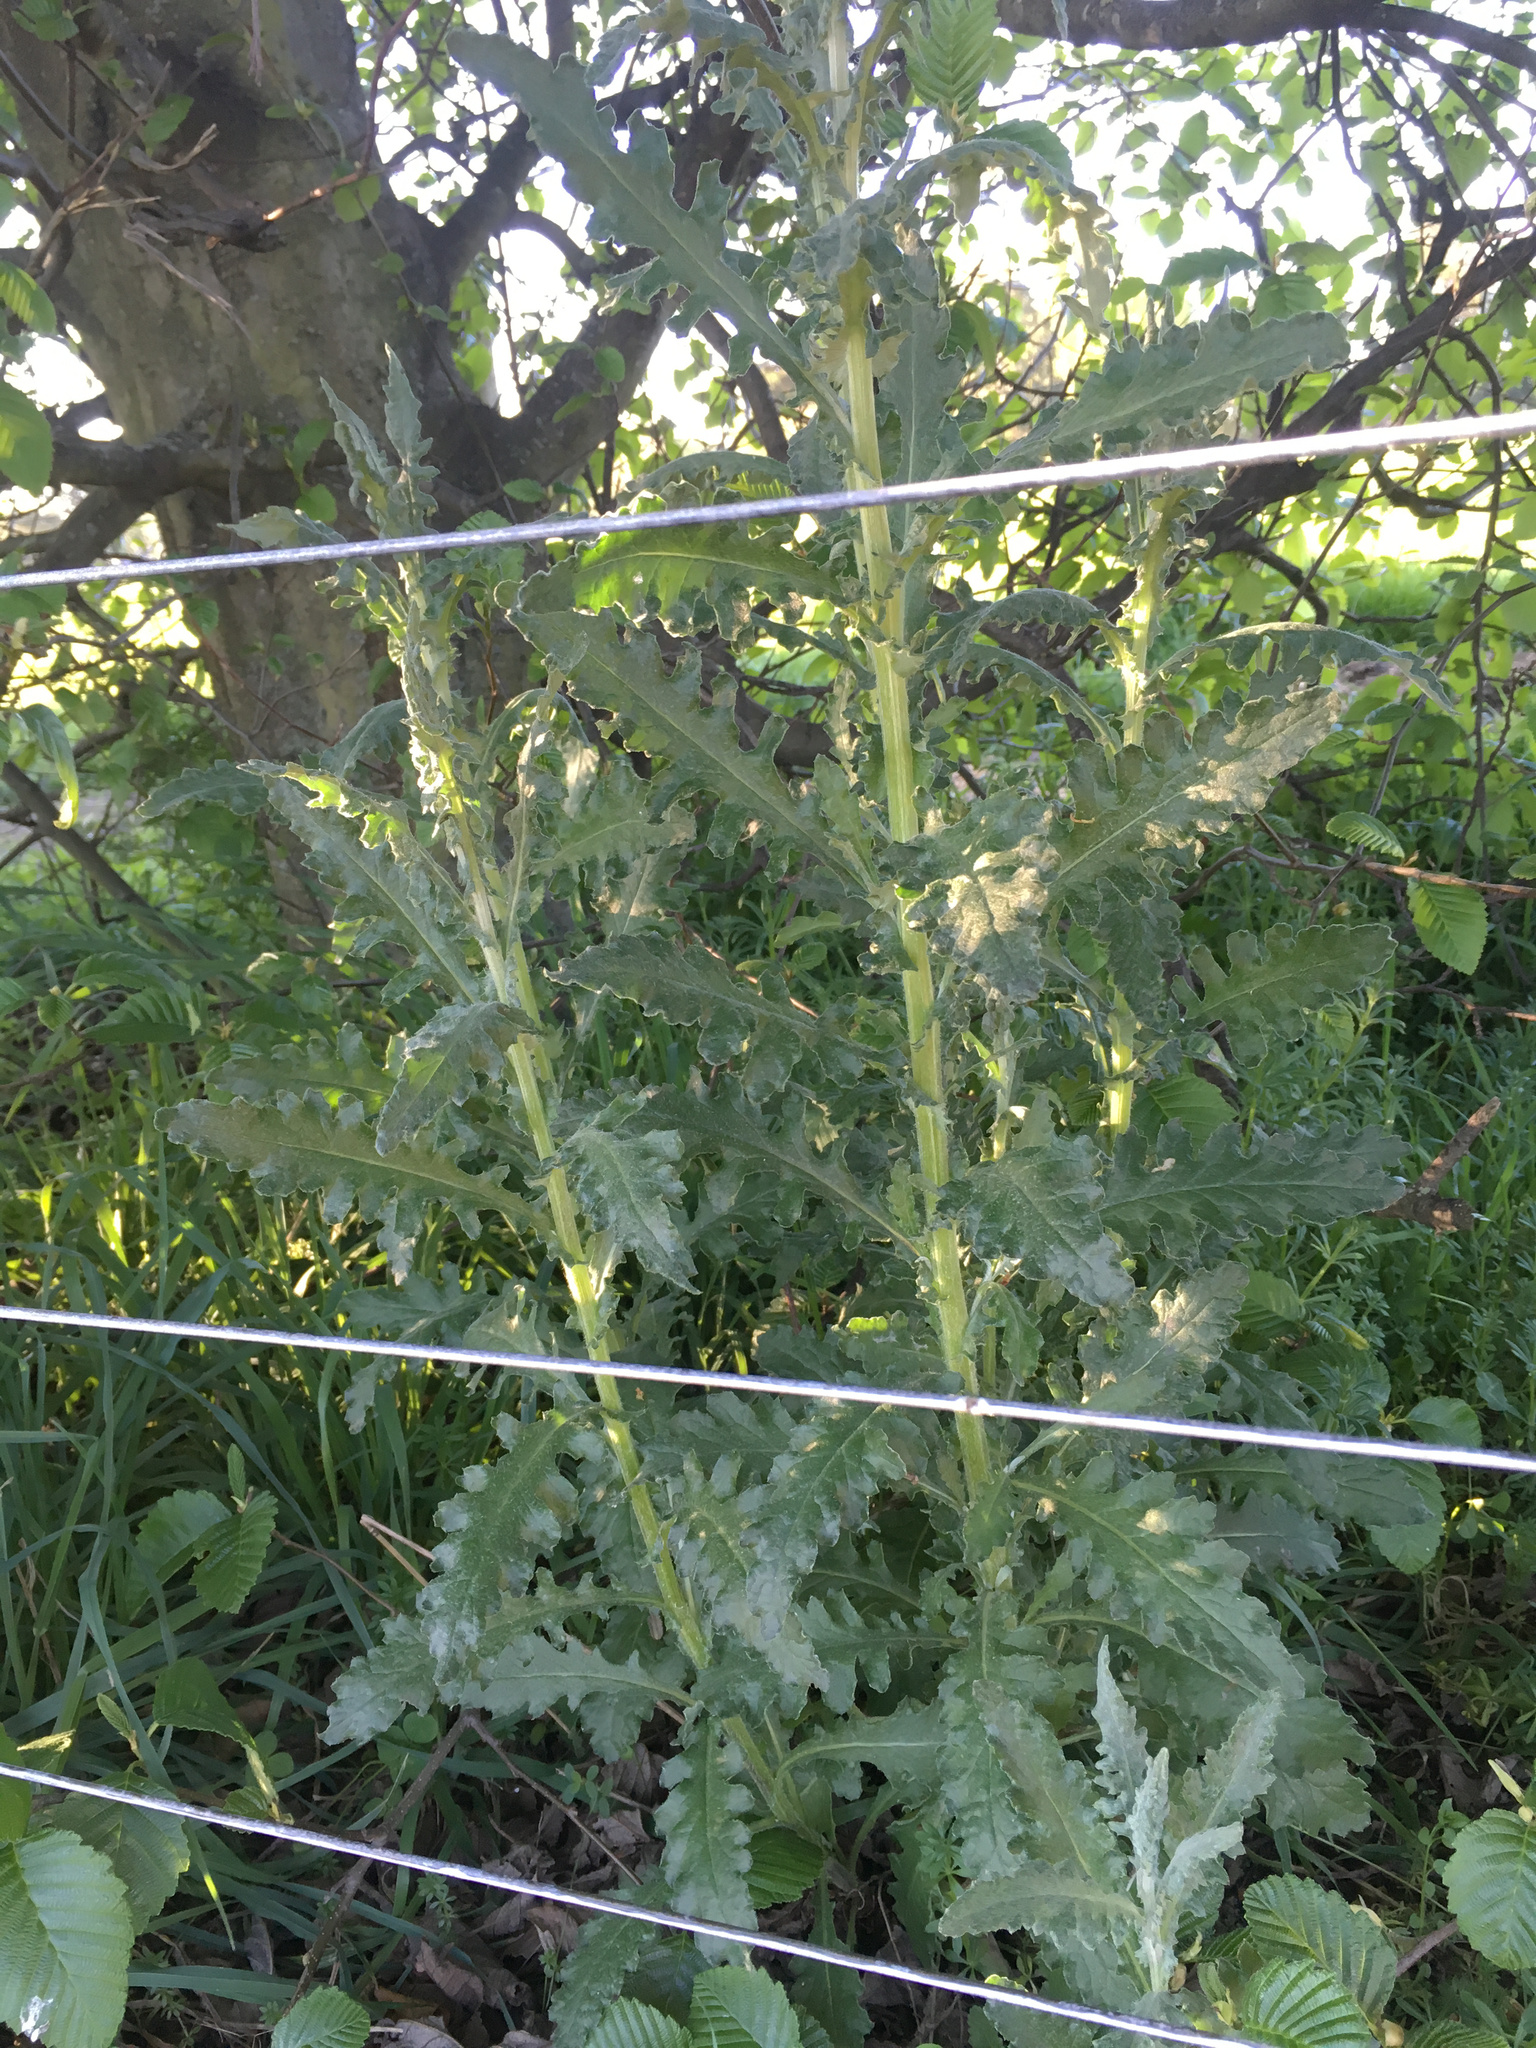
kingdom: Plantae
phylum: Tracheophyta
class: Magnoliopsida
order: Asterales
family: Asteraceae
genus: Senecio
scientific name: Senecio glomeratus
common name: Cutleaf burnweed
